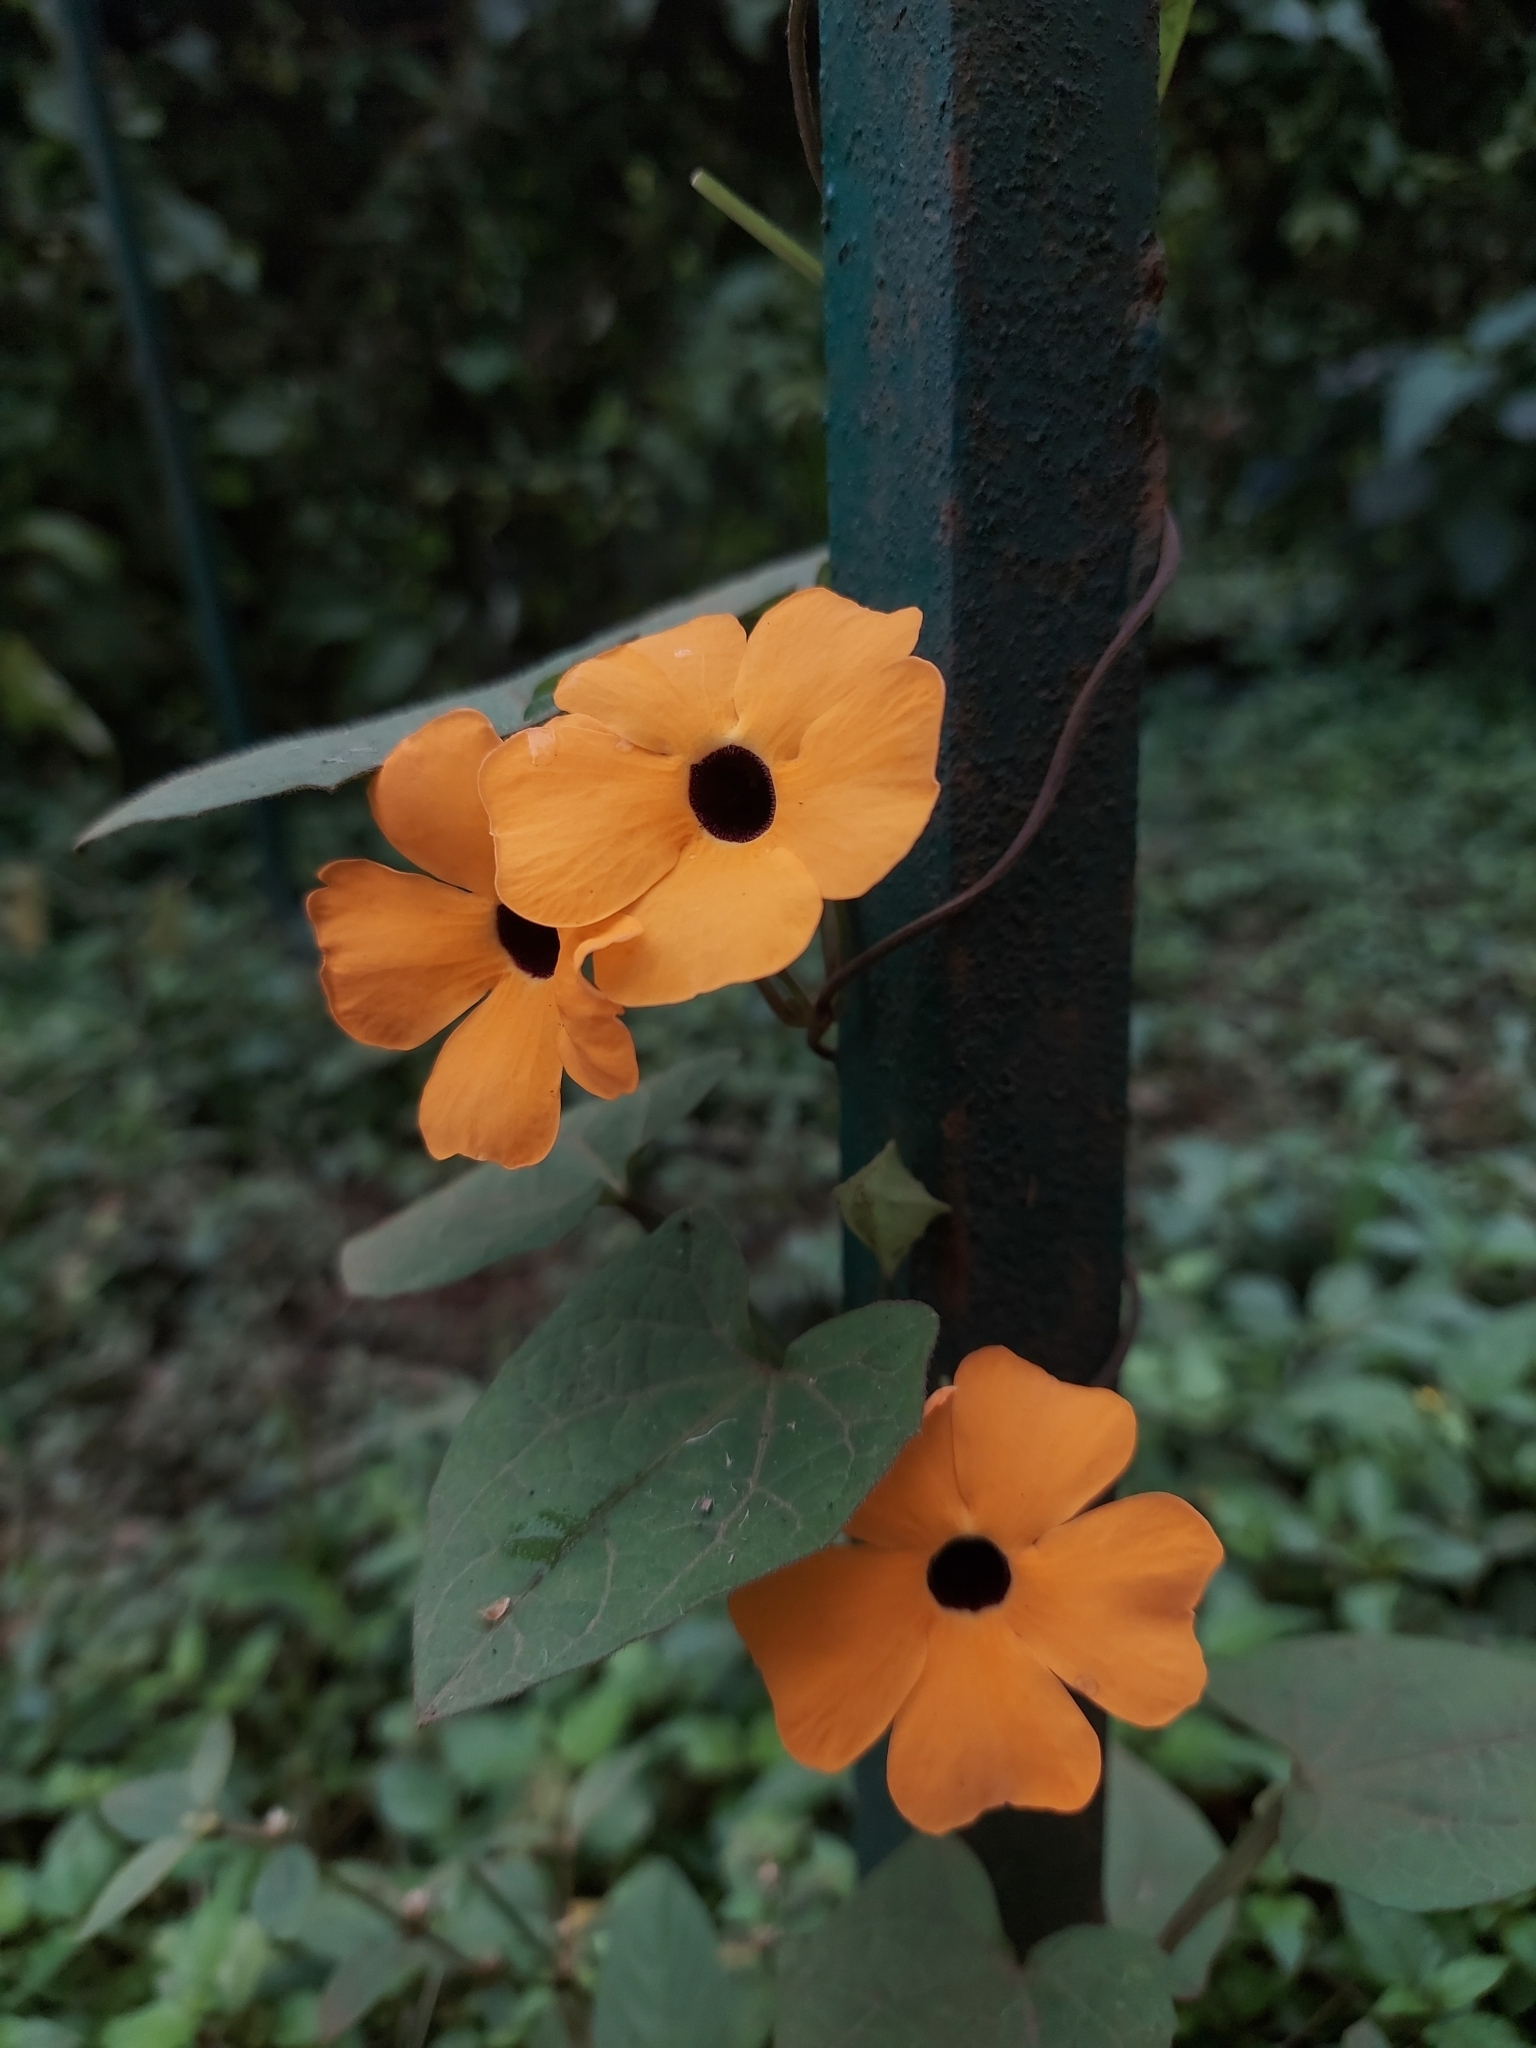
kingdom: Plantae
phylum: Tracheophyta
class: Magnoliopsida
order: Lamiales
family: Acanthaceae
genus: Thunbergia
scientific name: Thunbergia alata
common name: Blackeyed susan vine
